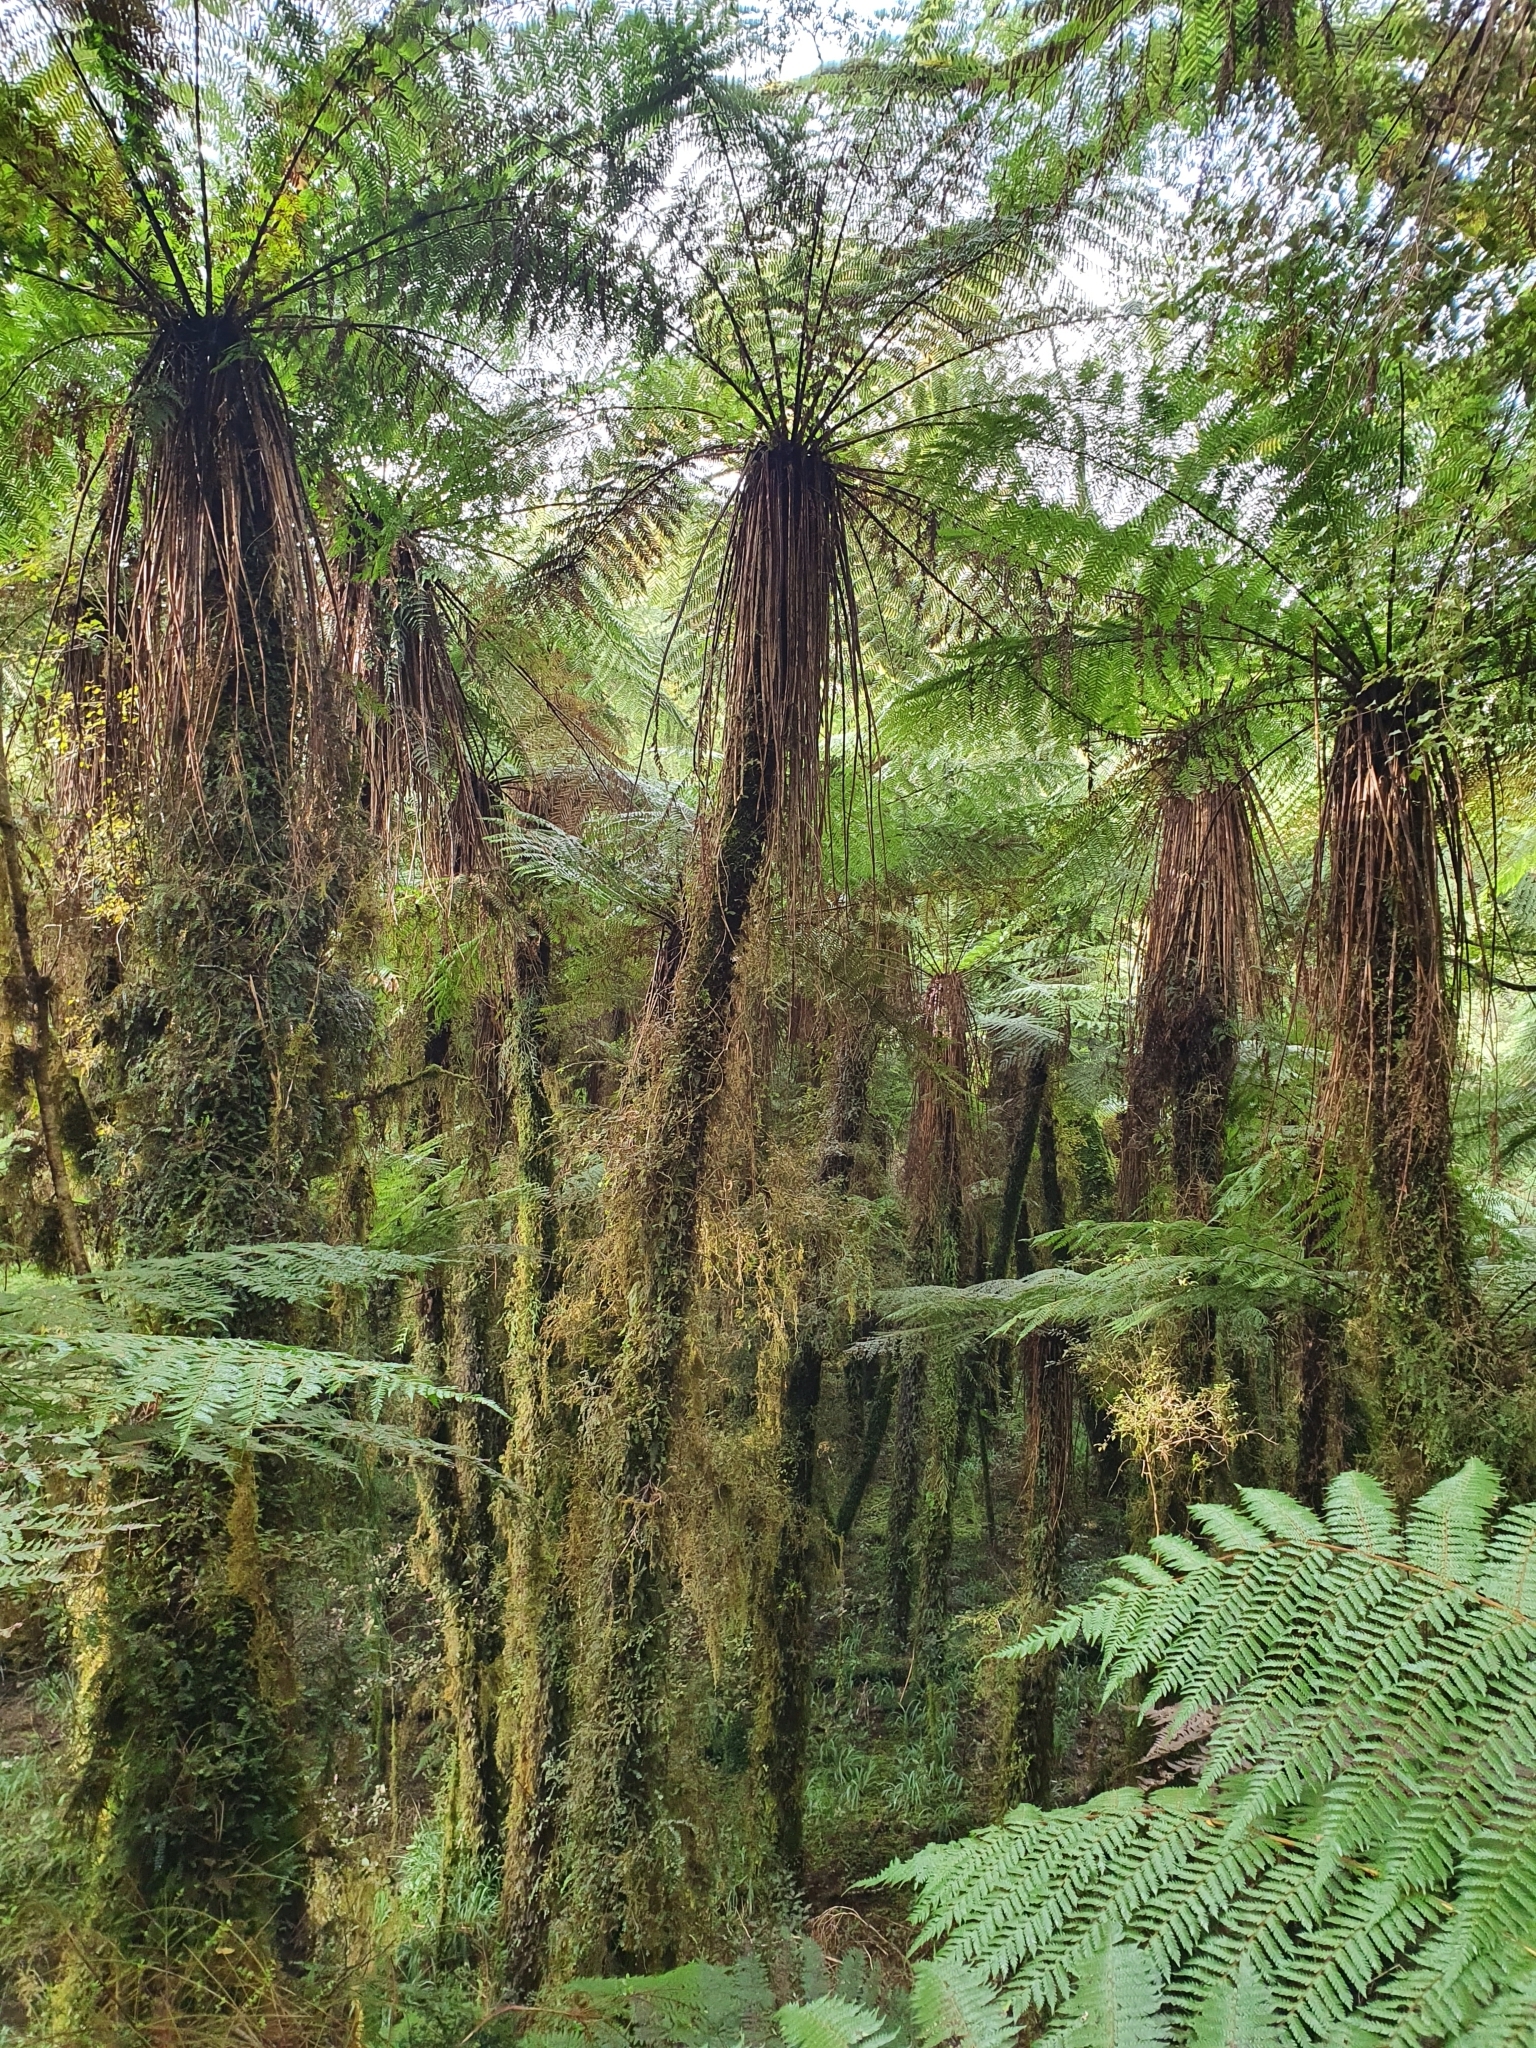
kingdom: Plantae
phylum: Tracheophyta
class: Polypodiopsida
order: Cyatheales
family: Cyatheaceae
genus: Alsophila
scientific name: Alsophila smithii
